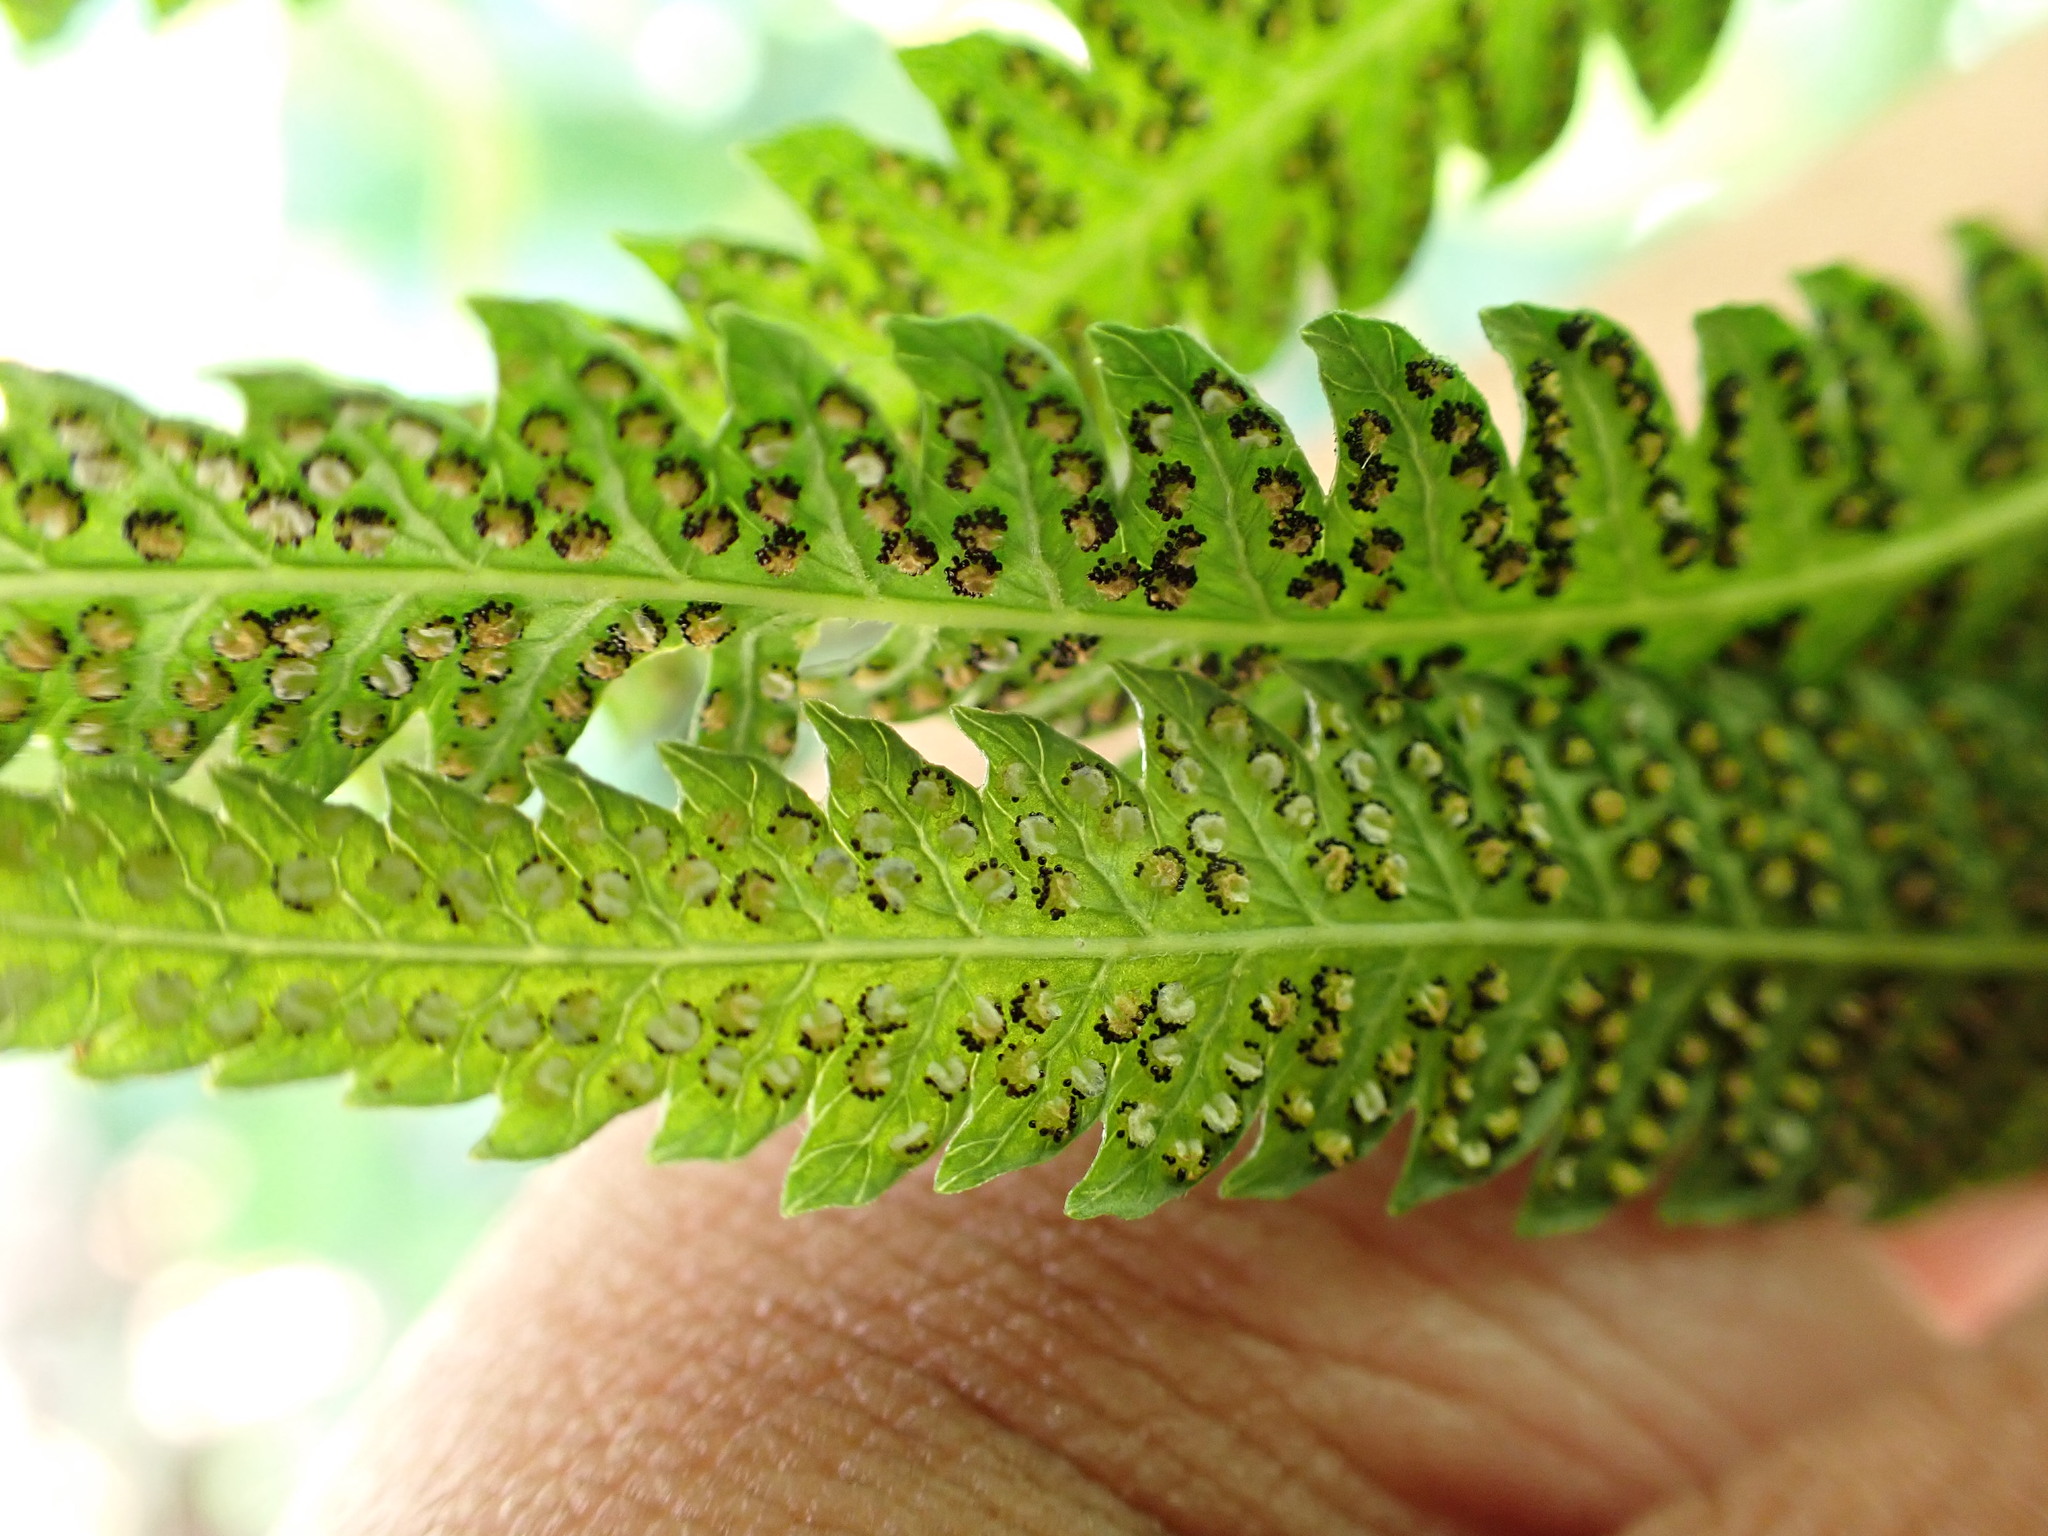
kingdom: Plantae
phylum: Tracheophyta
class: Polypodiopsida
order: Polypodiales
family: Thelypteridaceae
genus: Christella
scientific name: Christella acuminata
